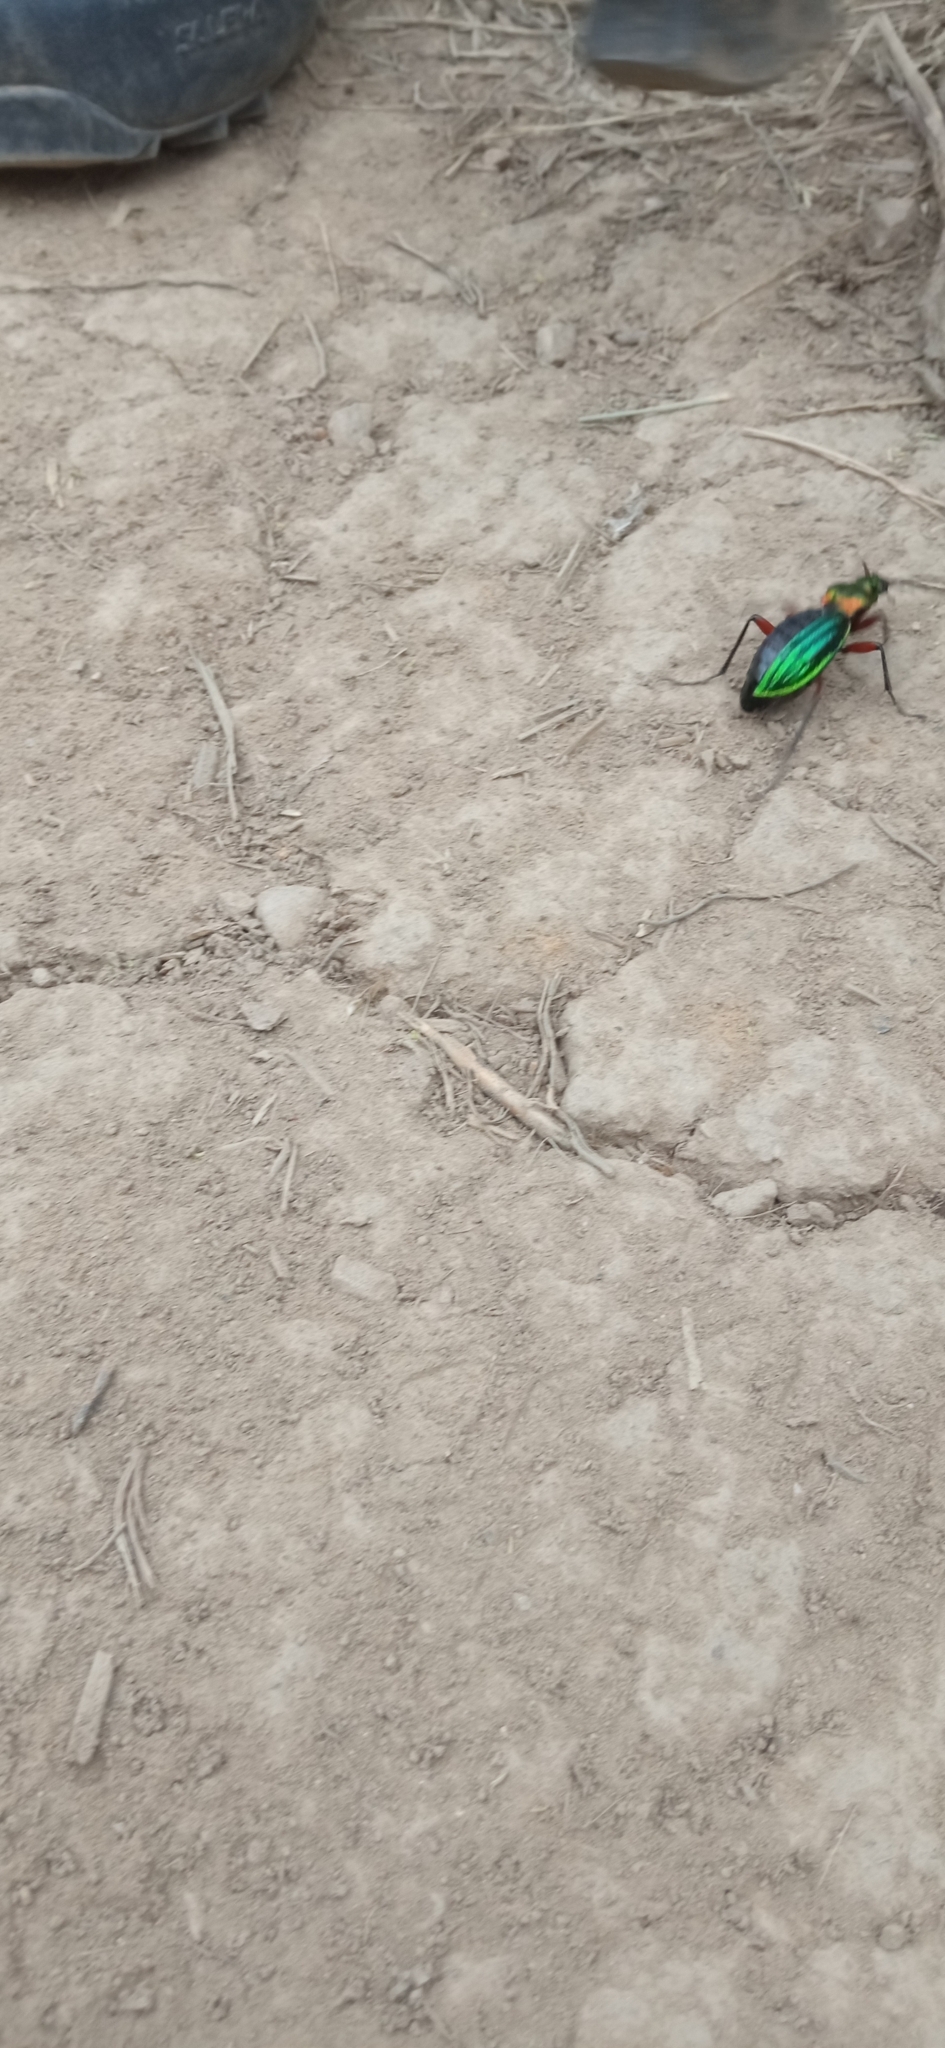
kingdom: Animalia
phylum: Arthropoda
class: Insecta
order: Coleoptera
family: Carabidae
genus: Carabus
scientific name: Carabus auronitens
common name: Carabus auronitens
